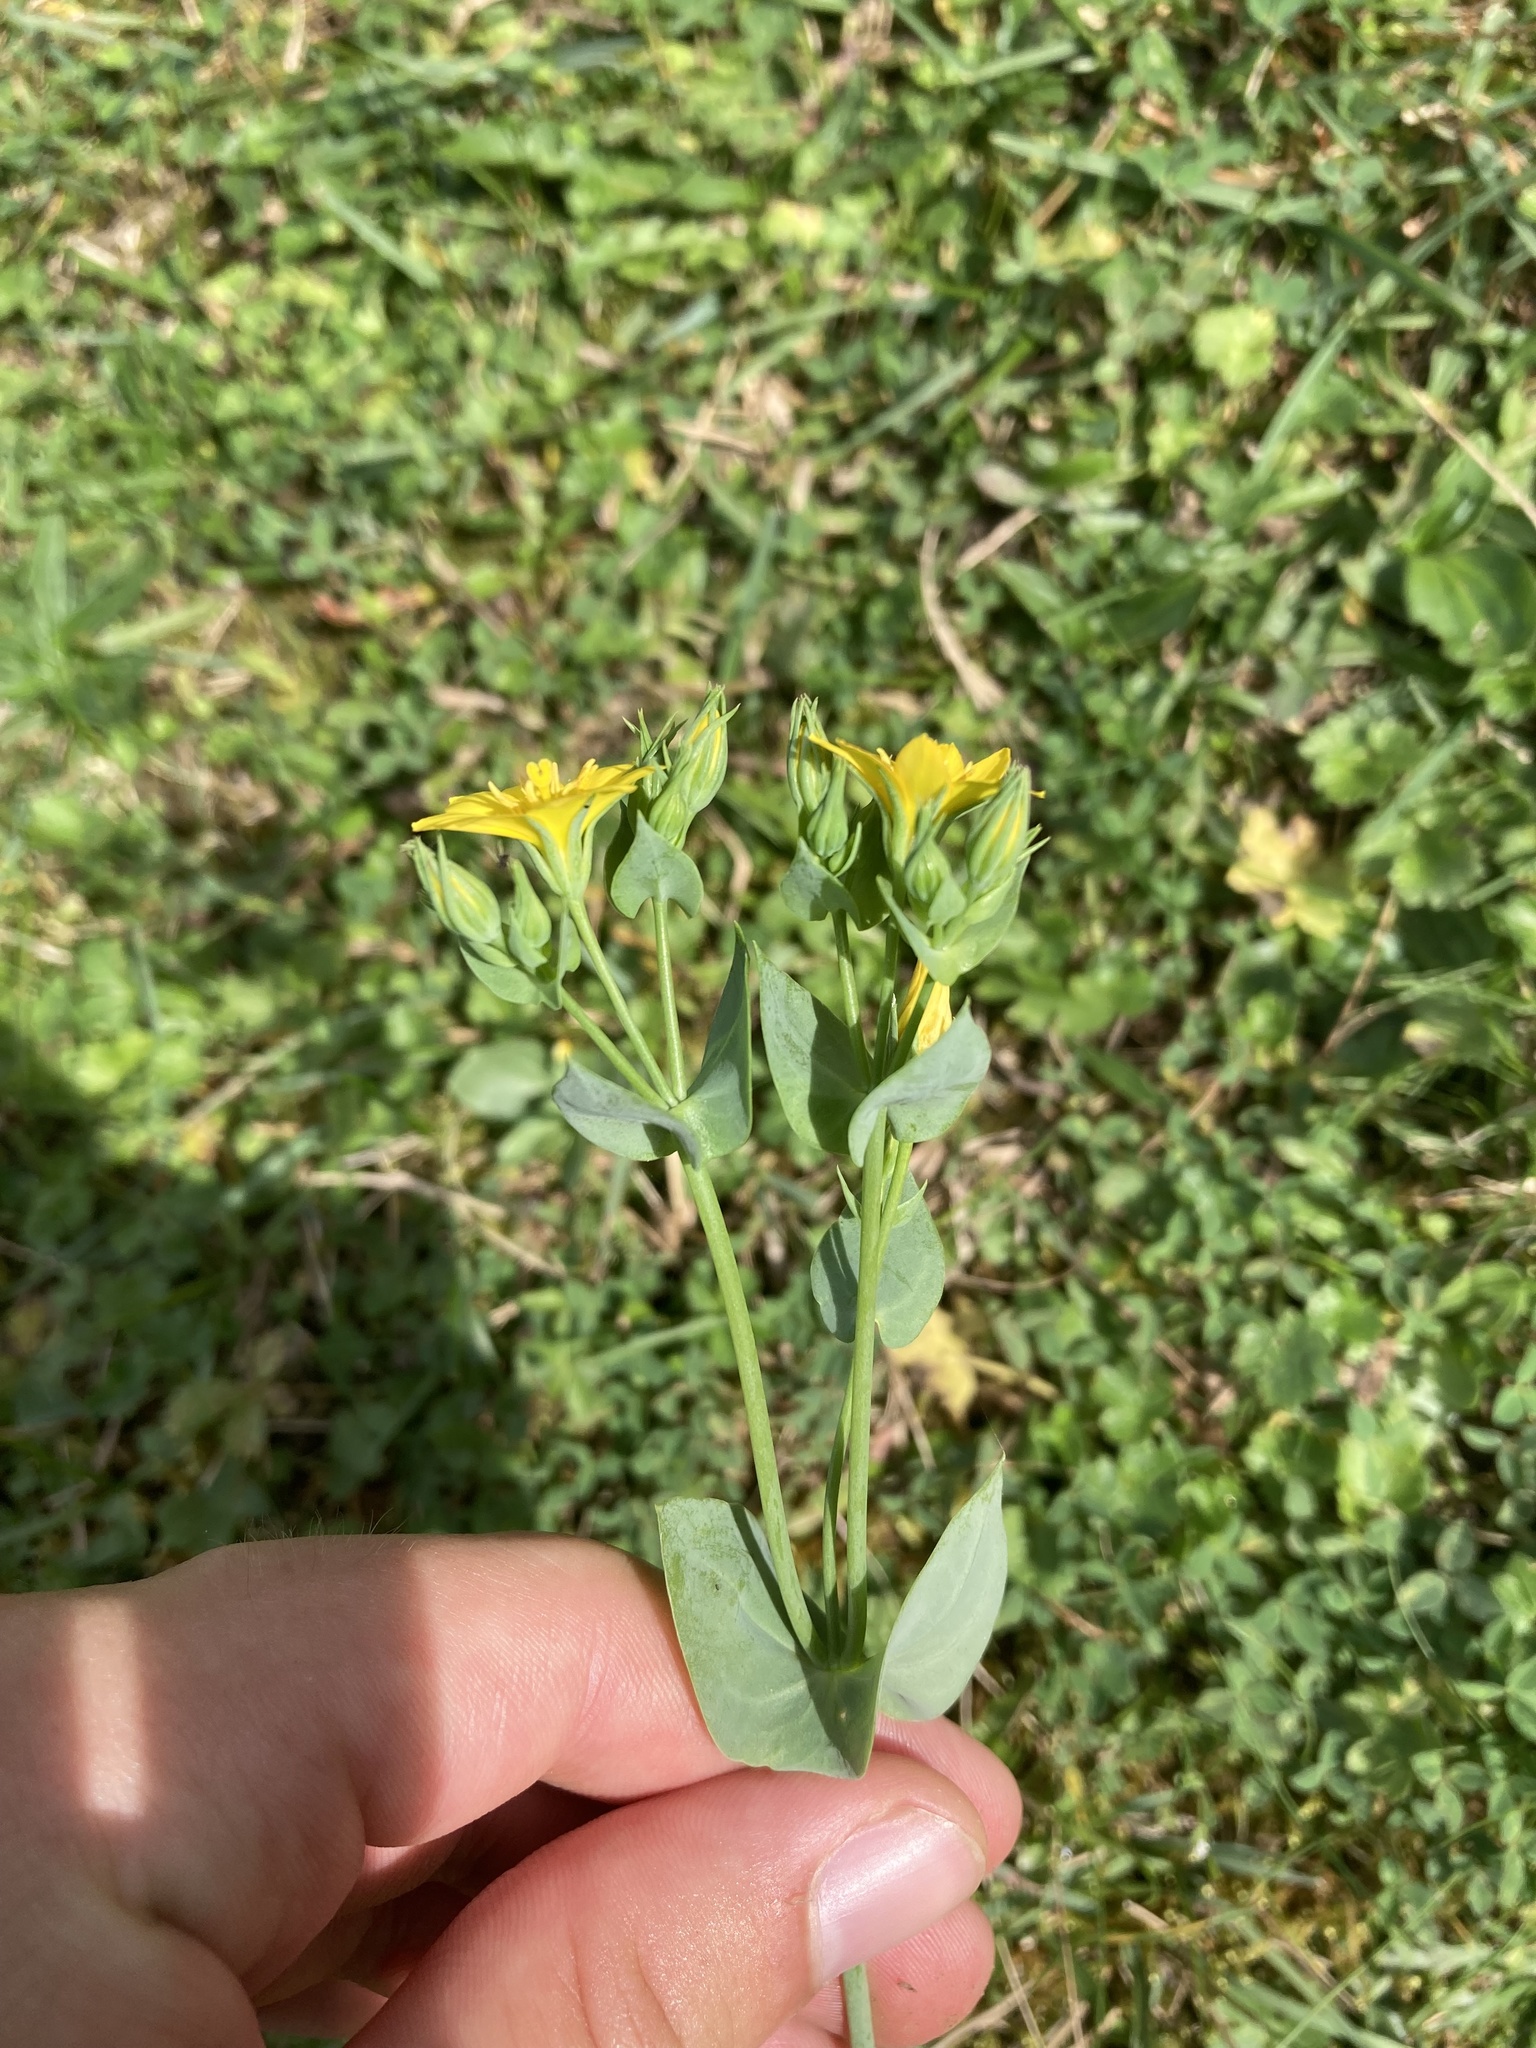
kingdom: Plantae
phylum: Tracheophyta
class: Magnoliopsida
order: Gentianales
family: Gentianaceae
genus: Blackstonia
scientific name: Blackstonia perfoliata
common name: Yellow-wort
